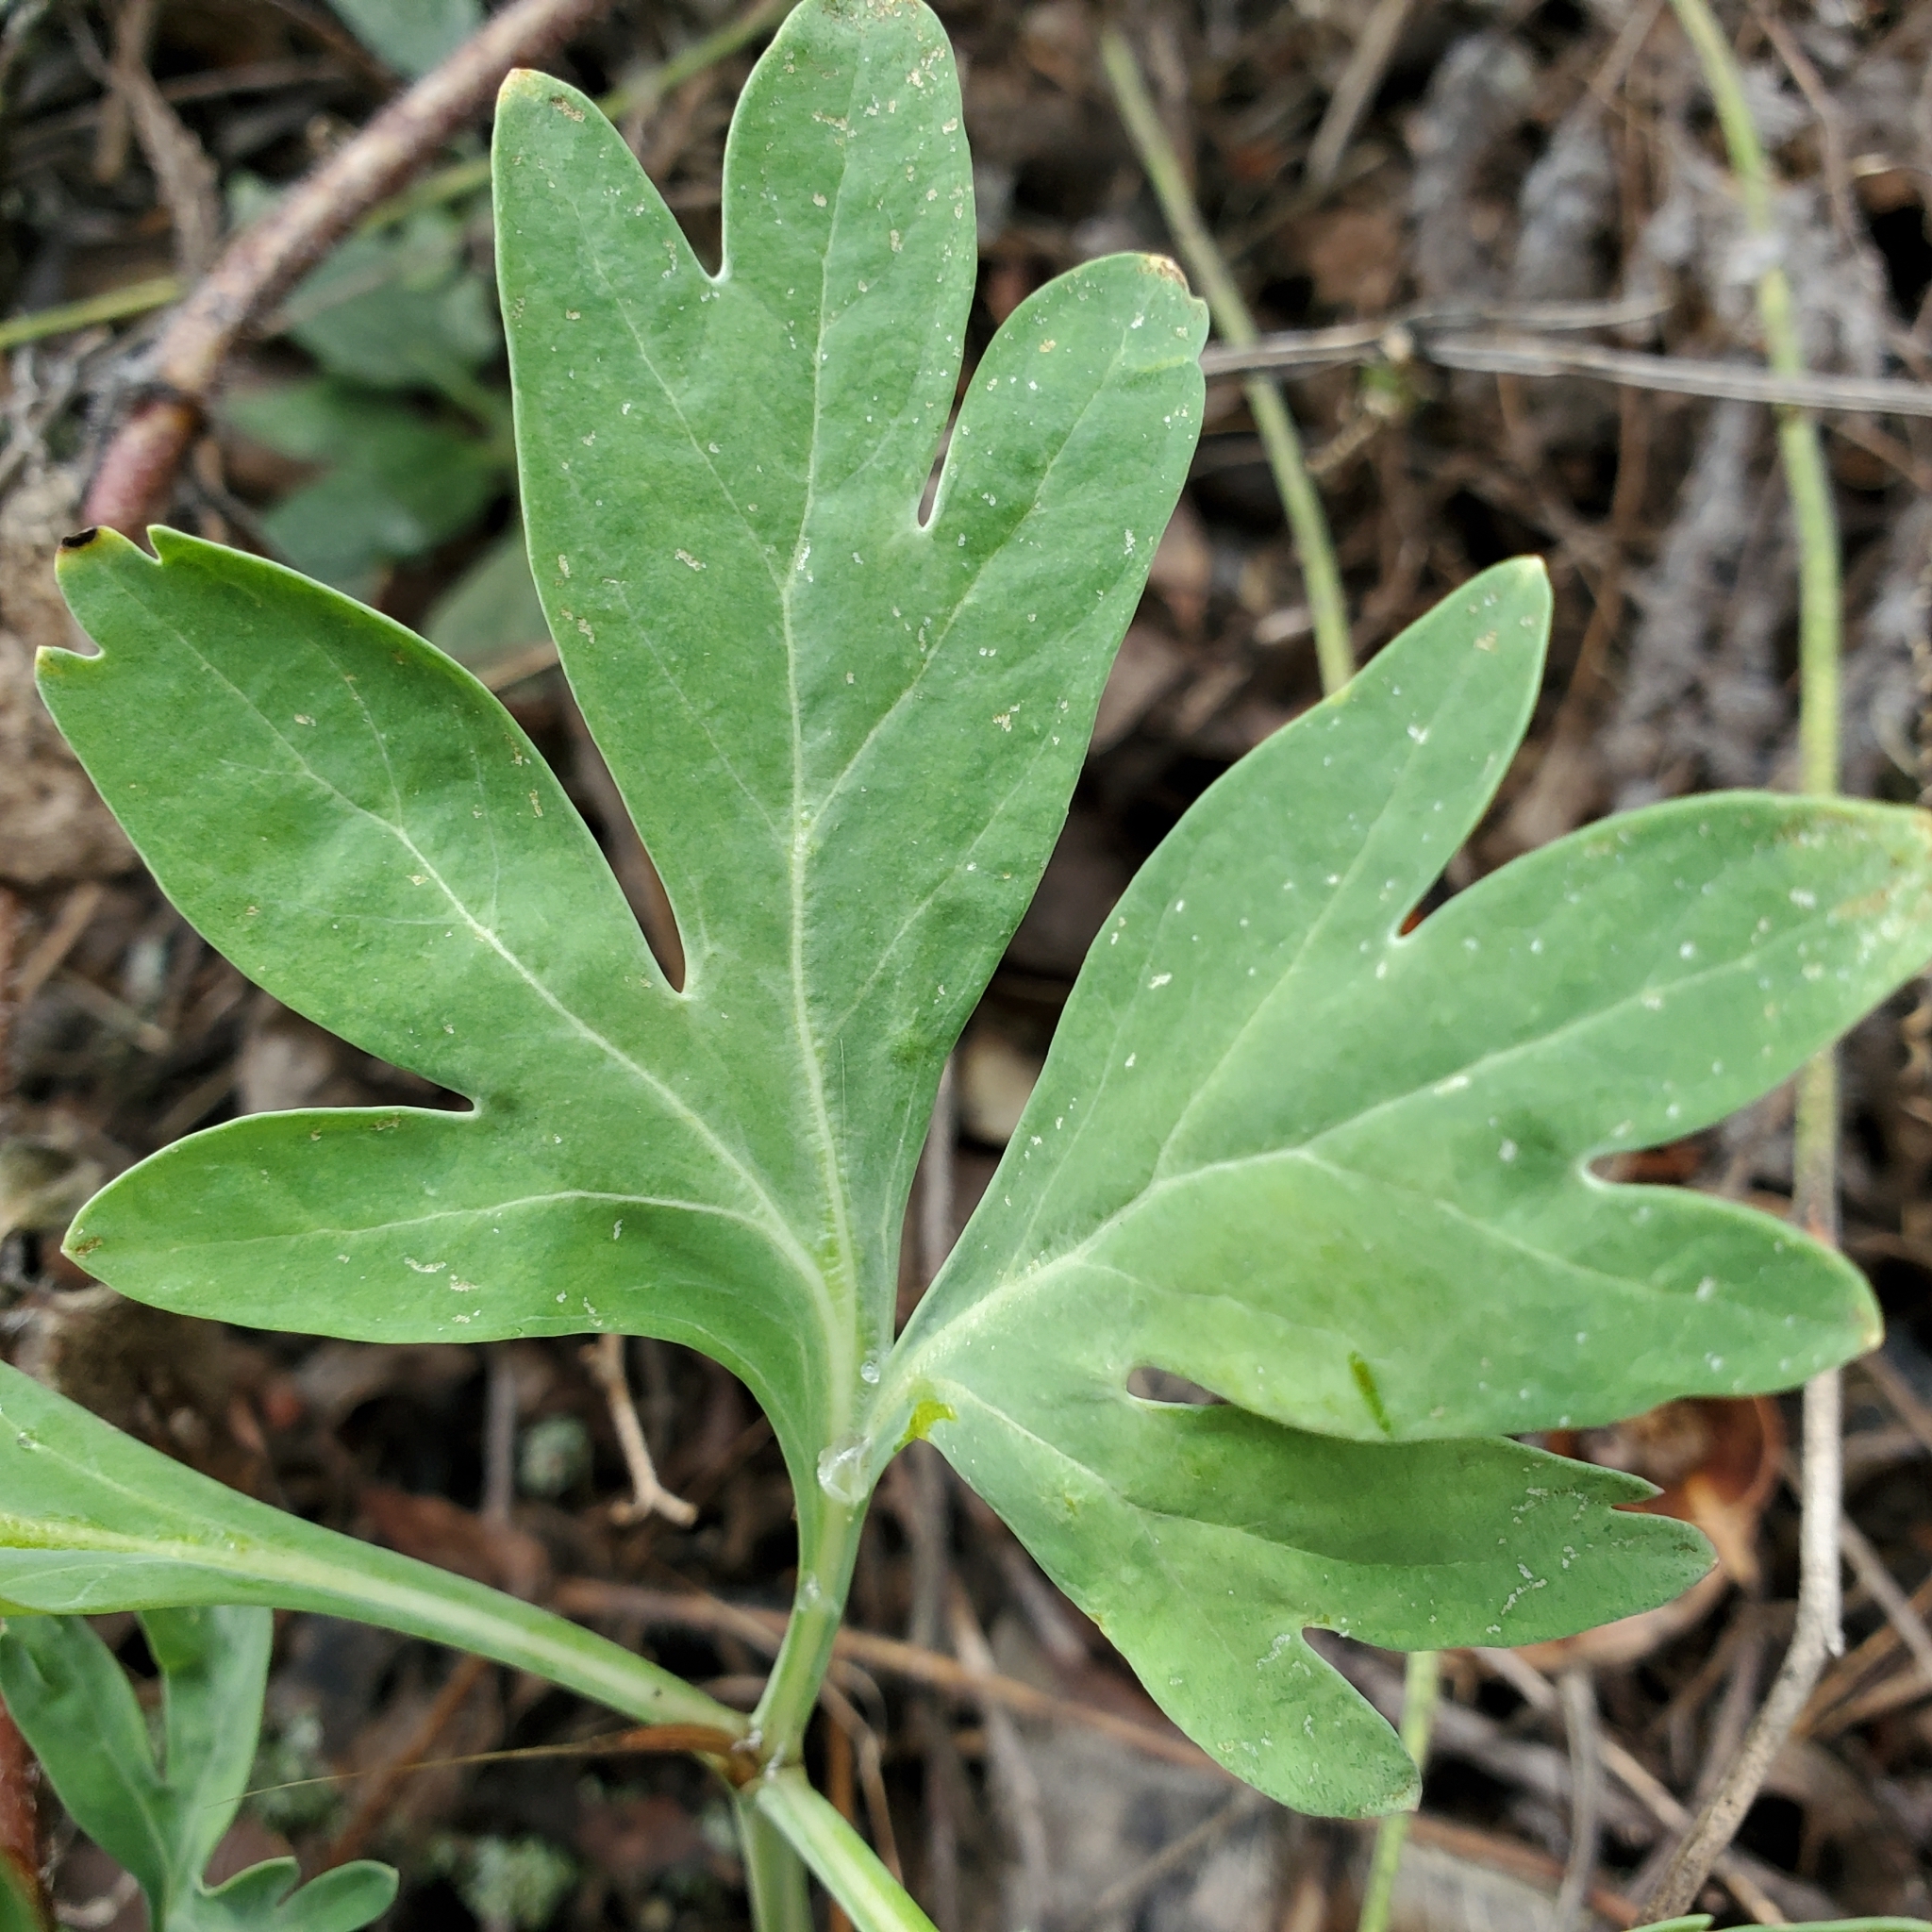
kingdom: Plantae
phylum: Tracheophyta
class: Magnoliopsida
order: Saxifragales
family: Paeoniaceae
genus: Paeonia
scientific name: Paeonia californica
